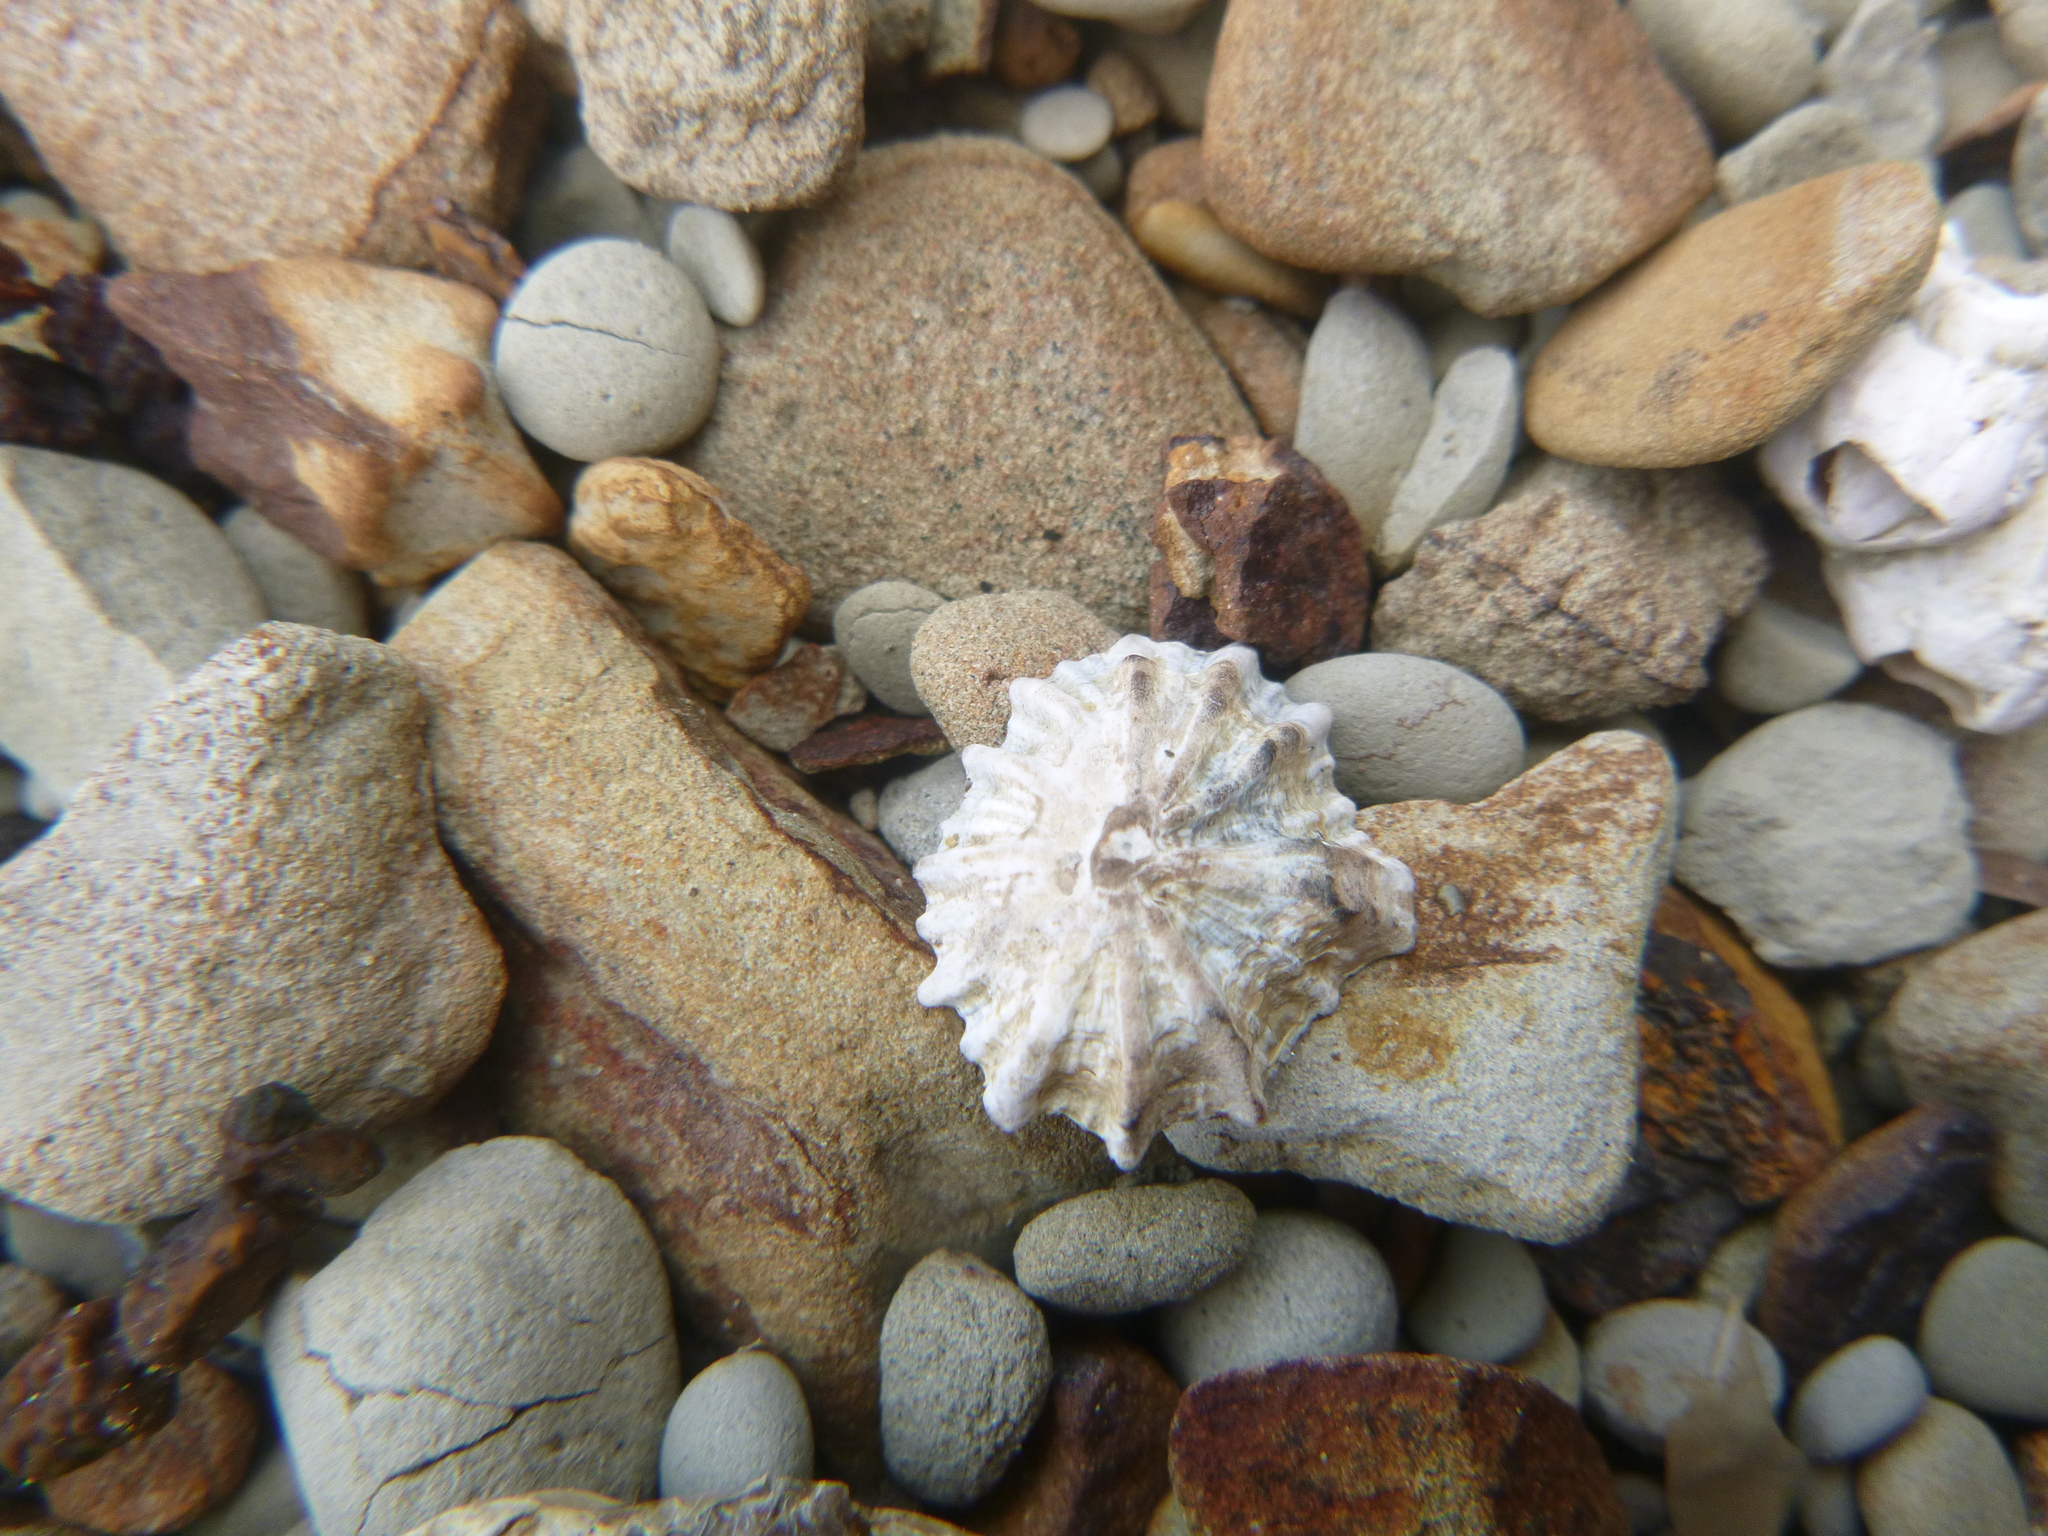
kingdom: Animalia
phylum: Mollusca
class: Gastropoda
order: Siphonariida
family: Siphonariidae
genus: Siphonaria
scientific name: Siphonaria australis
